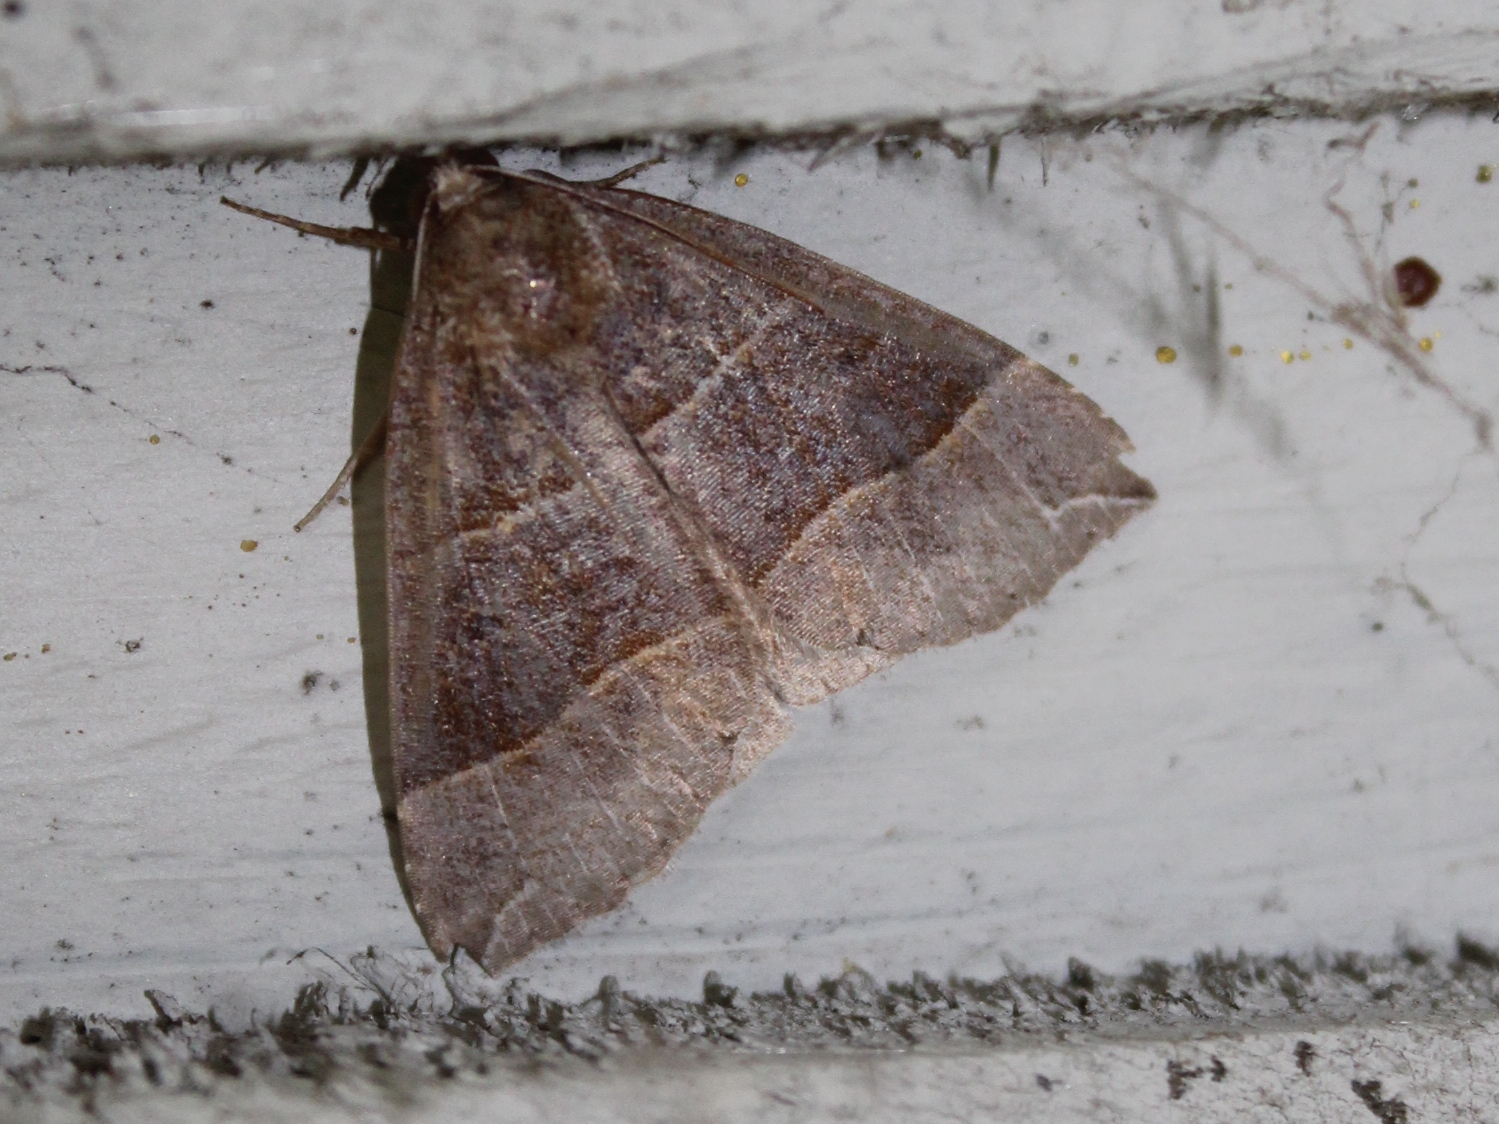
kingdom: Animalia
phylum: Arthropoda
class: Insecta
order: Lepidoptera
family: Erebidae
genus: Parallelia
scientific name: Parallelia bistriaris
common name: Maple looper moth
